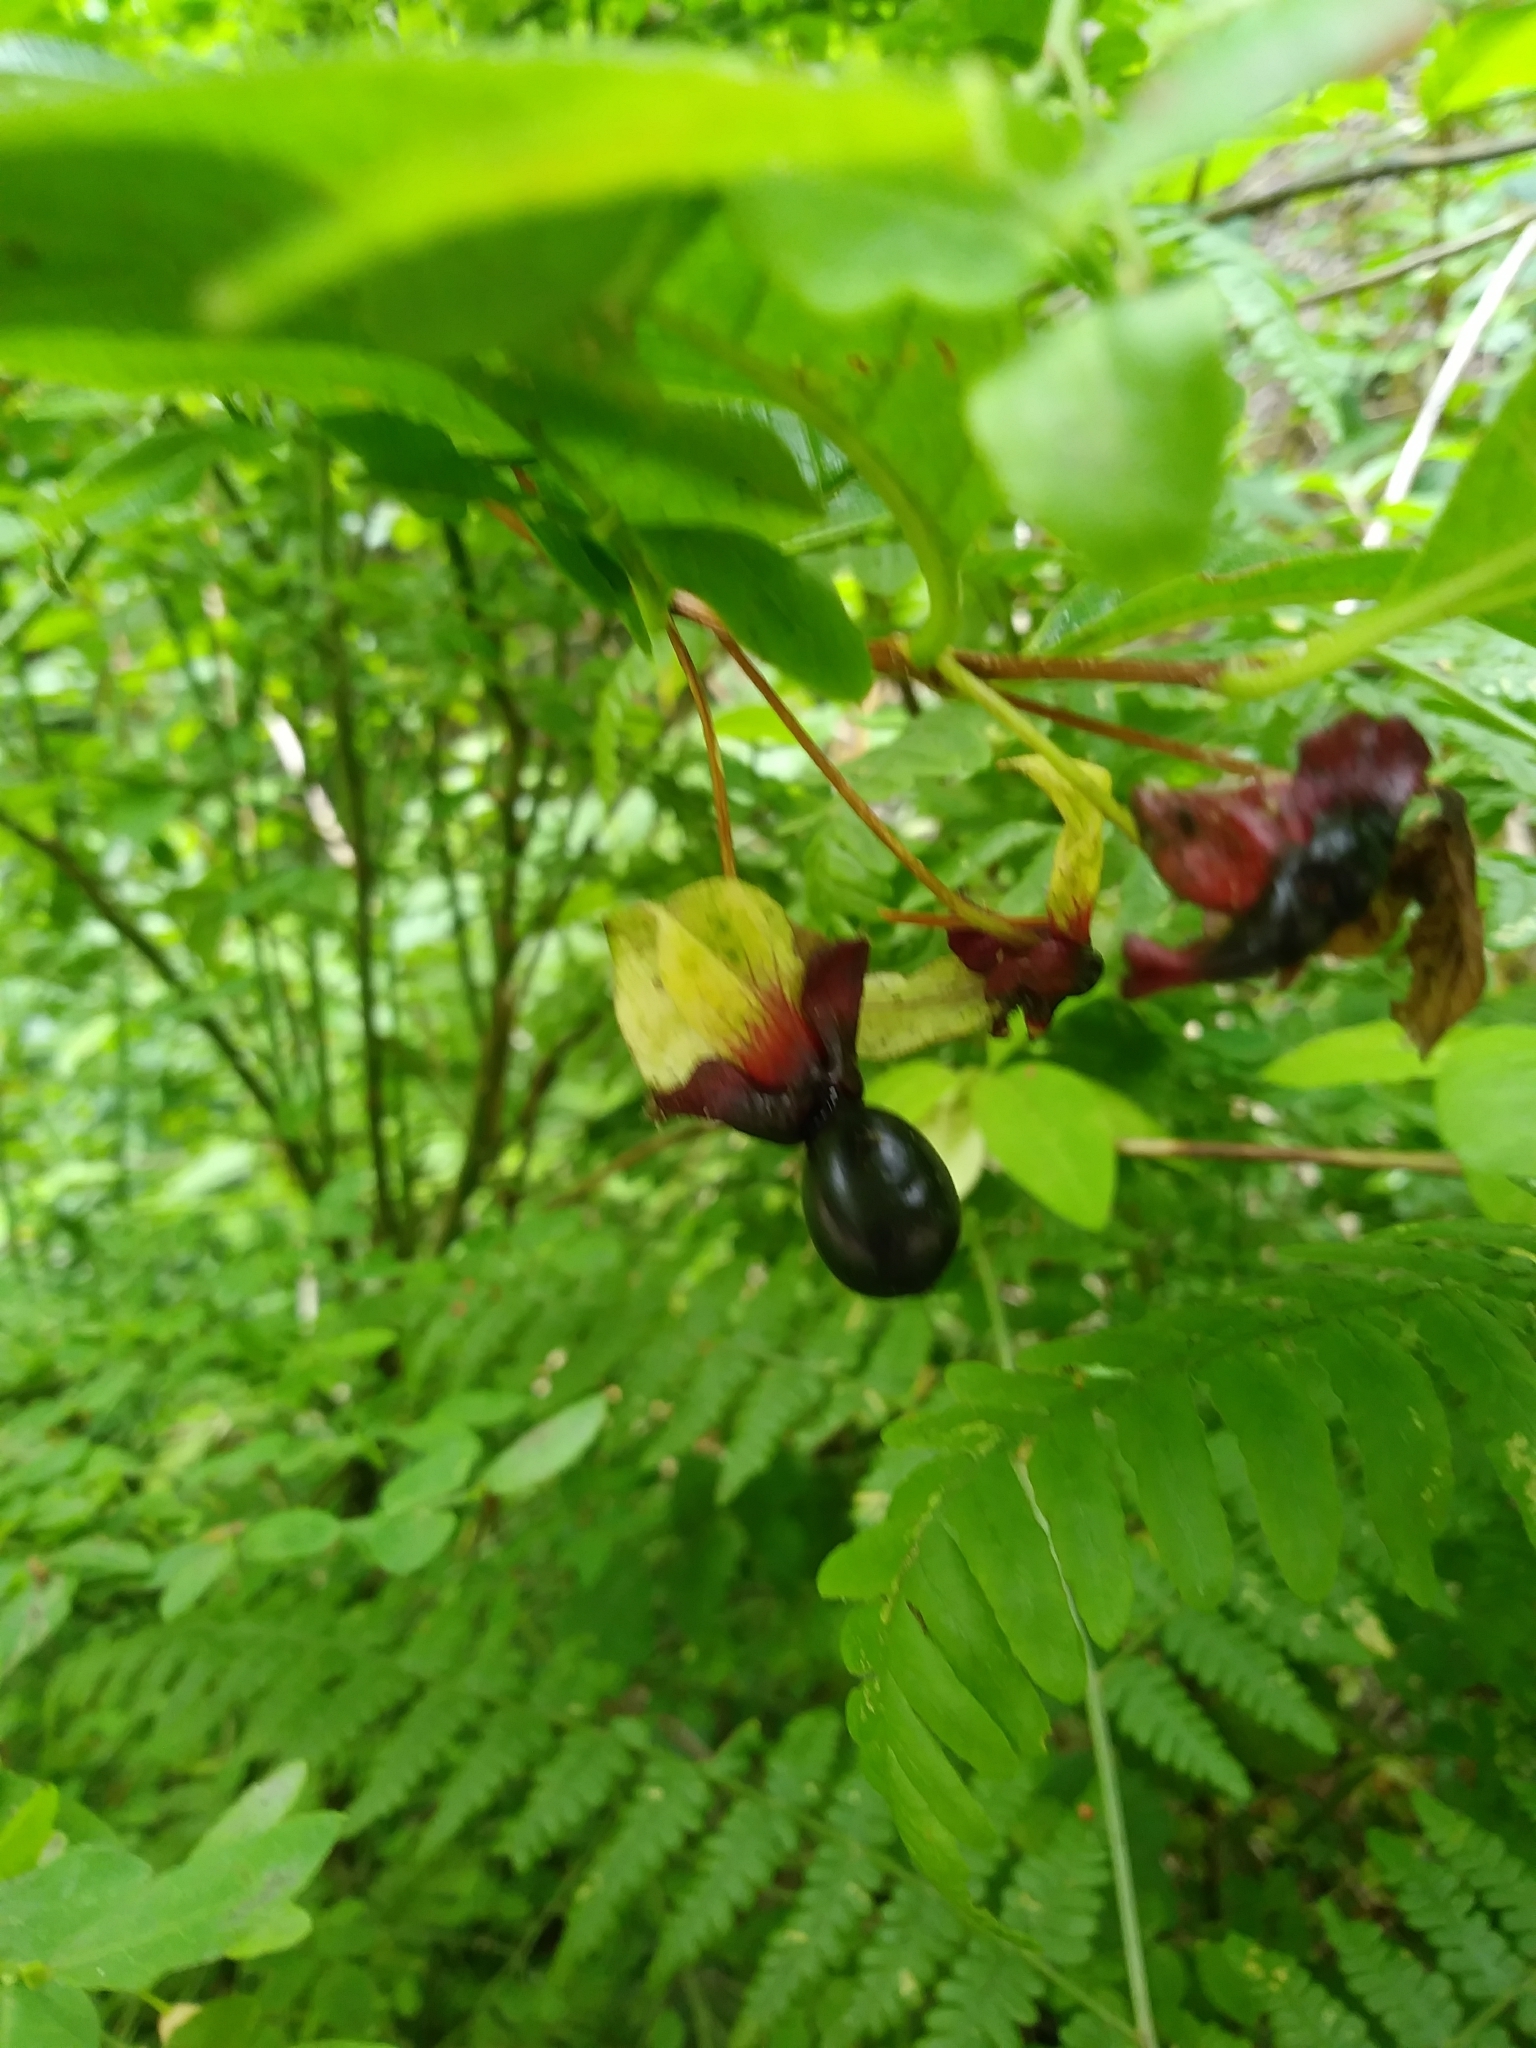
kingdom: Plantae
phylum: Tracheophyta
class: Magnoliopsida
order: Dipsacales
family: Caprifoliaceae
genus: Lonicera
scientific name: Lonicera involucrata
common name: Californian honeysuckle
